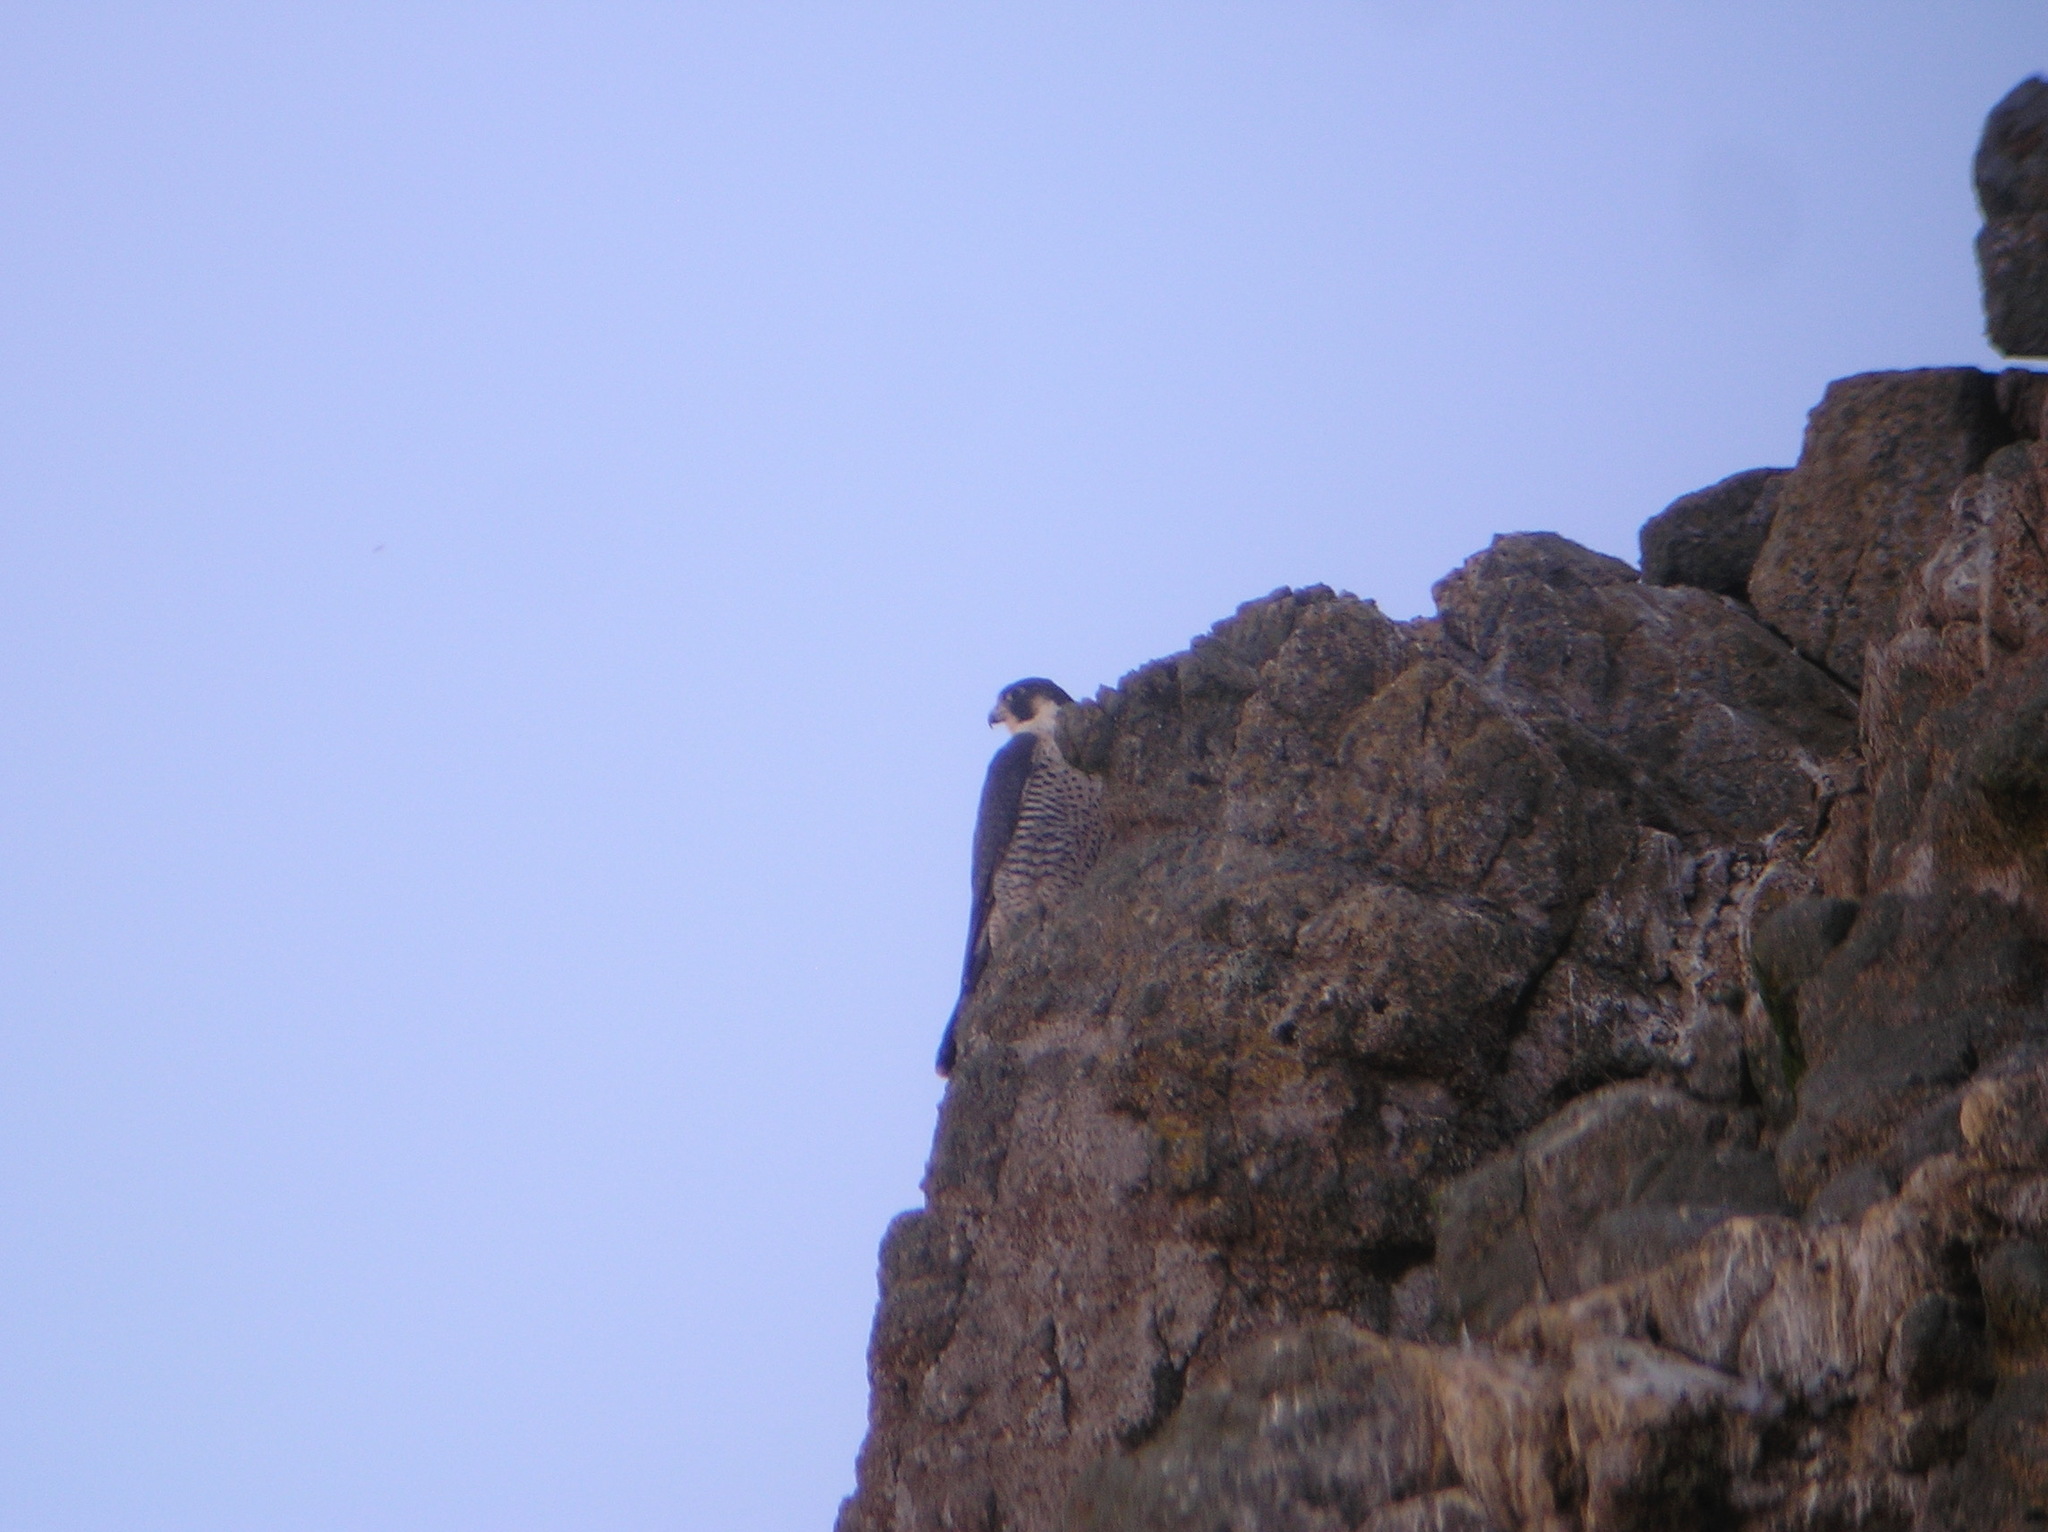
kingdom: Animalia
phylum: Chordata
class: Aves
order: Falconiformes
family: Falconidae
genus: Falco
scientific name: Falco peregrinus
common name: Peregrine falcon
